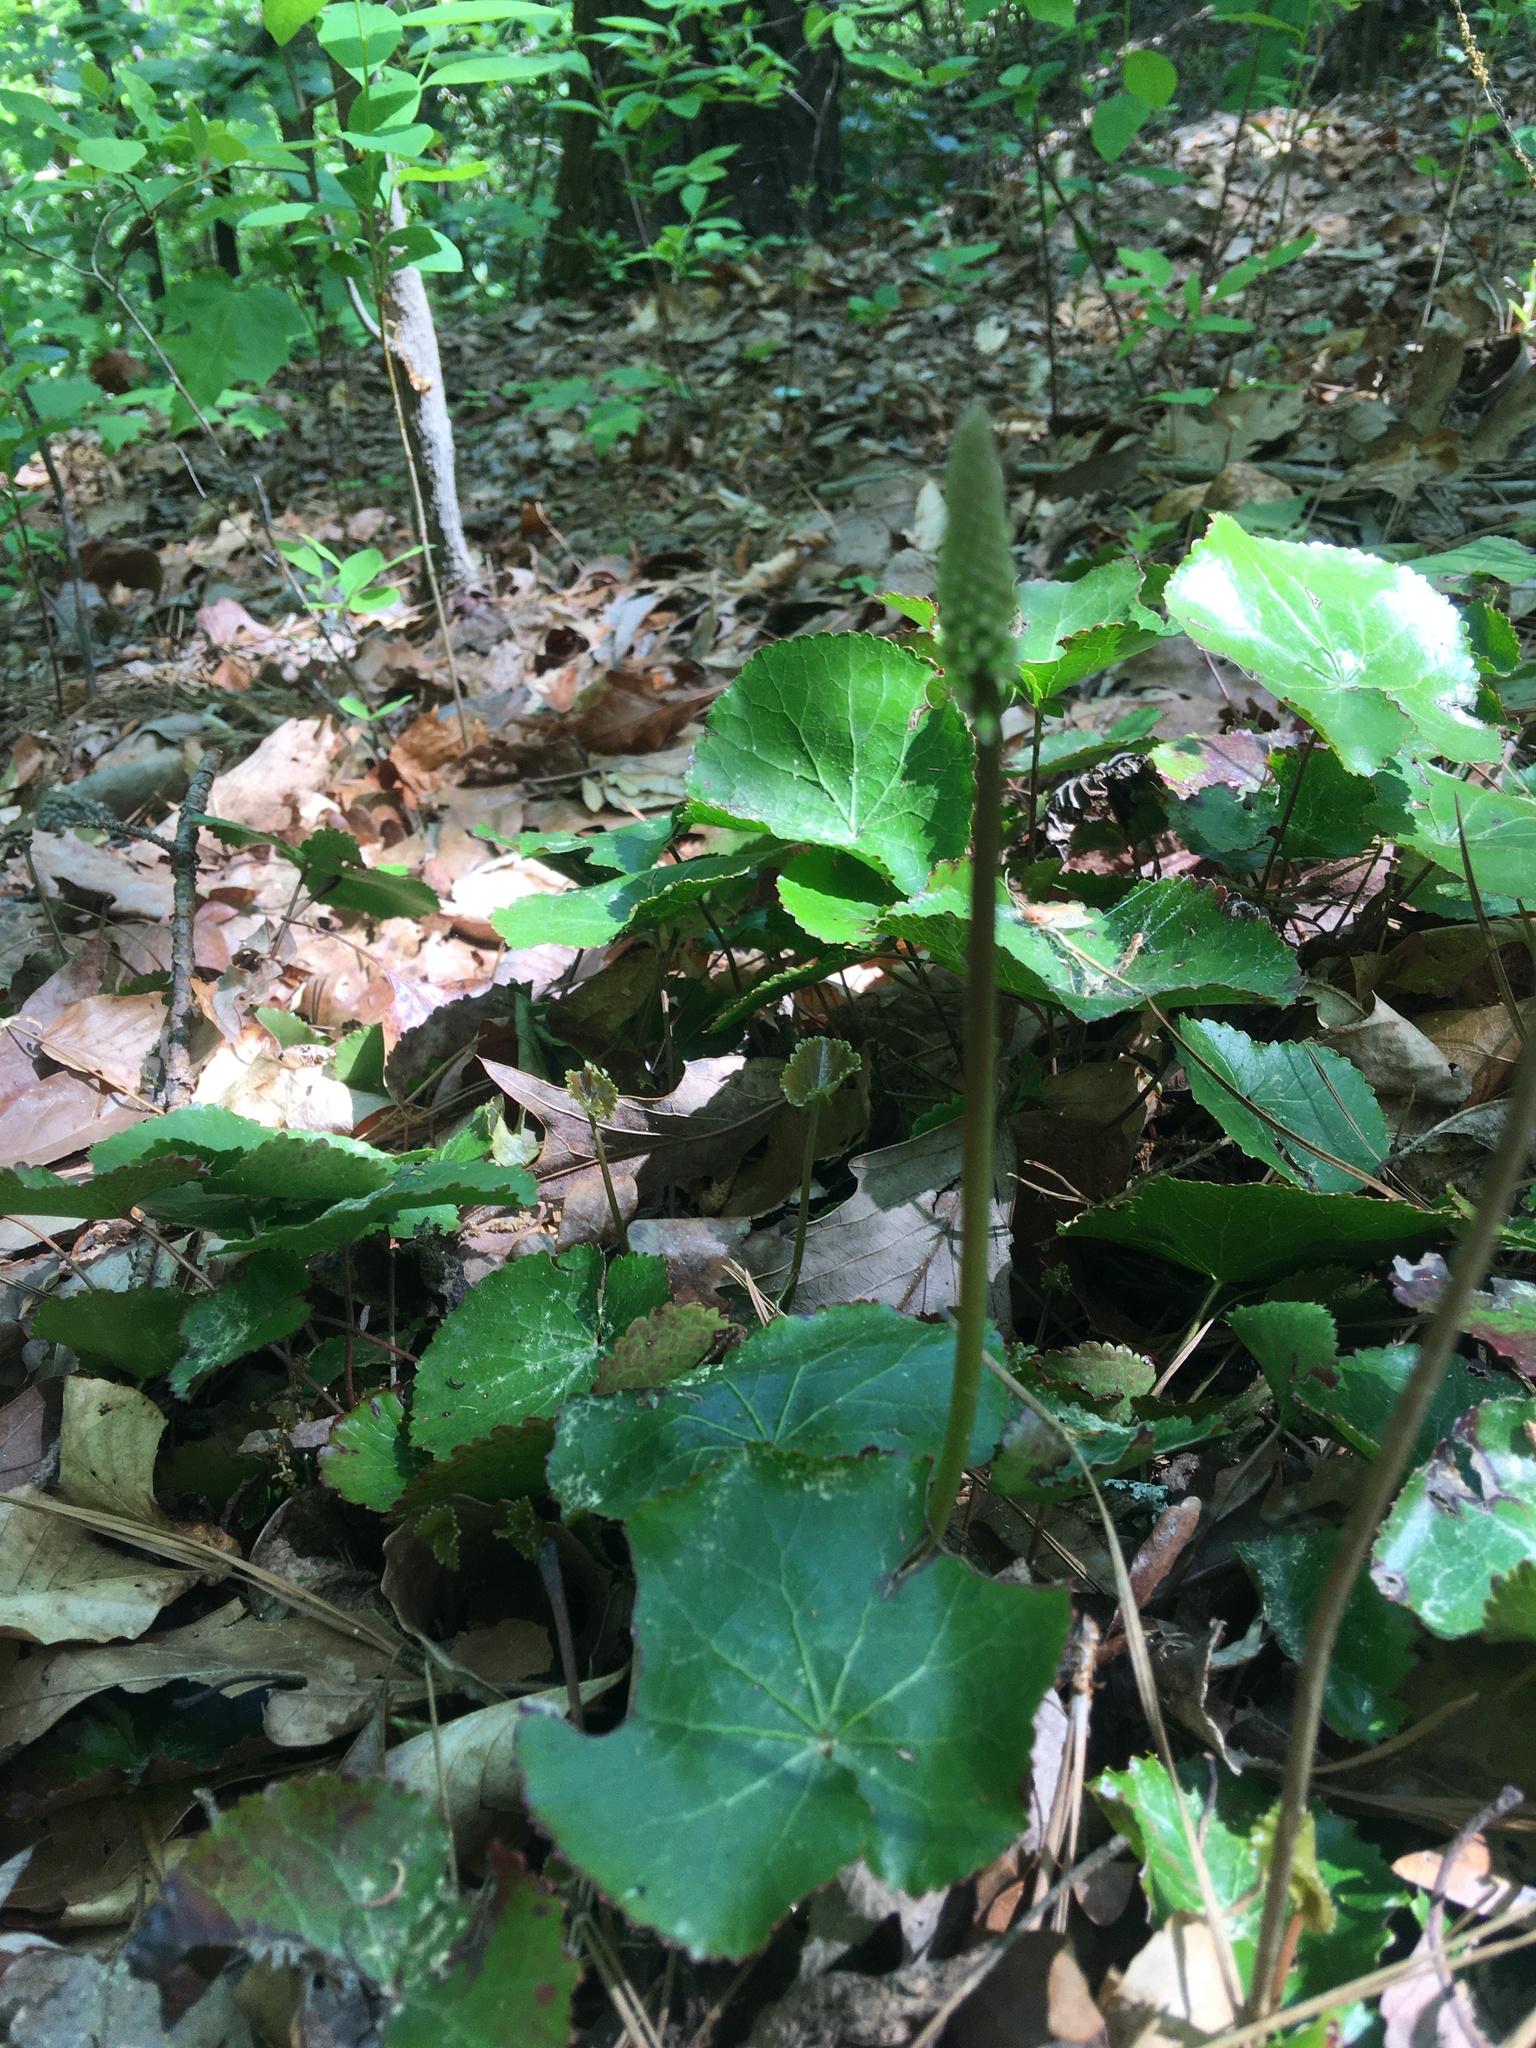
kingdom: Plantae
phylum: Tracheophyta
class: Magnoliopsida
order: Ericales
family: Diapensiaceae
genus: Galax
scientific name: Galax urceolata
